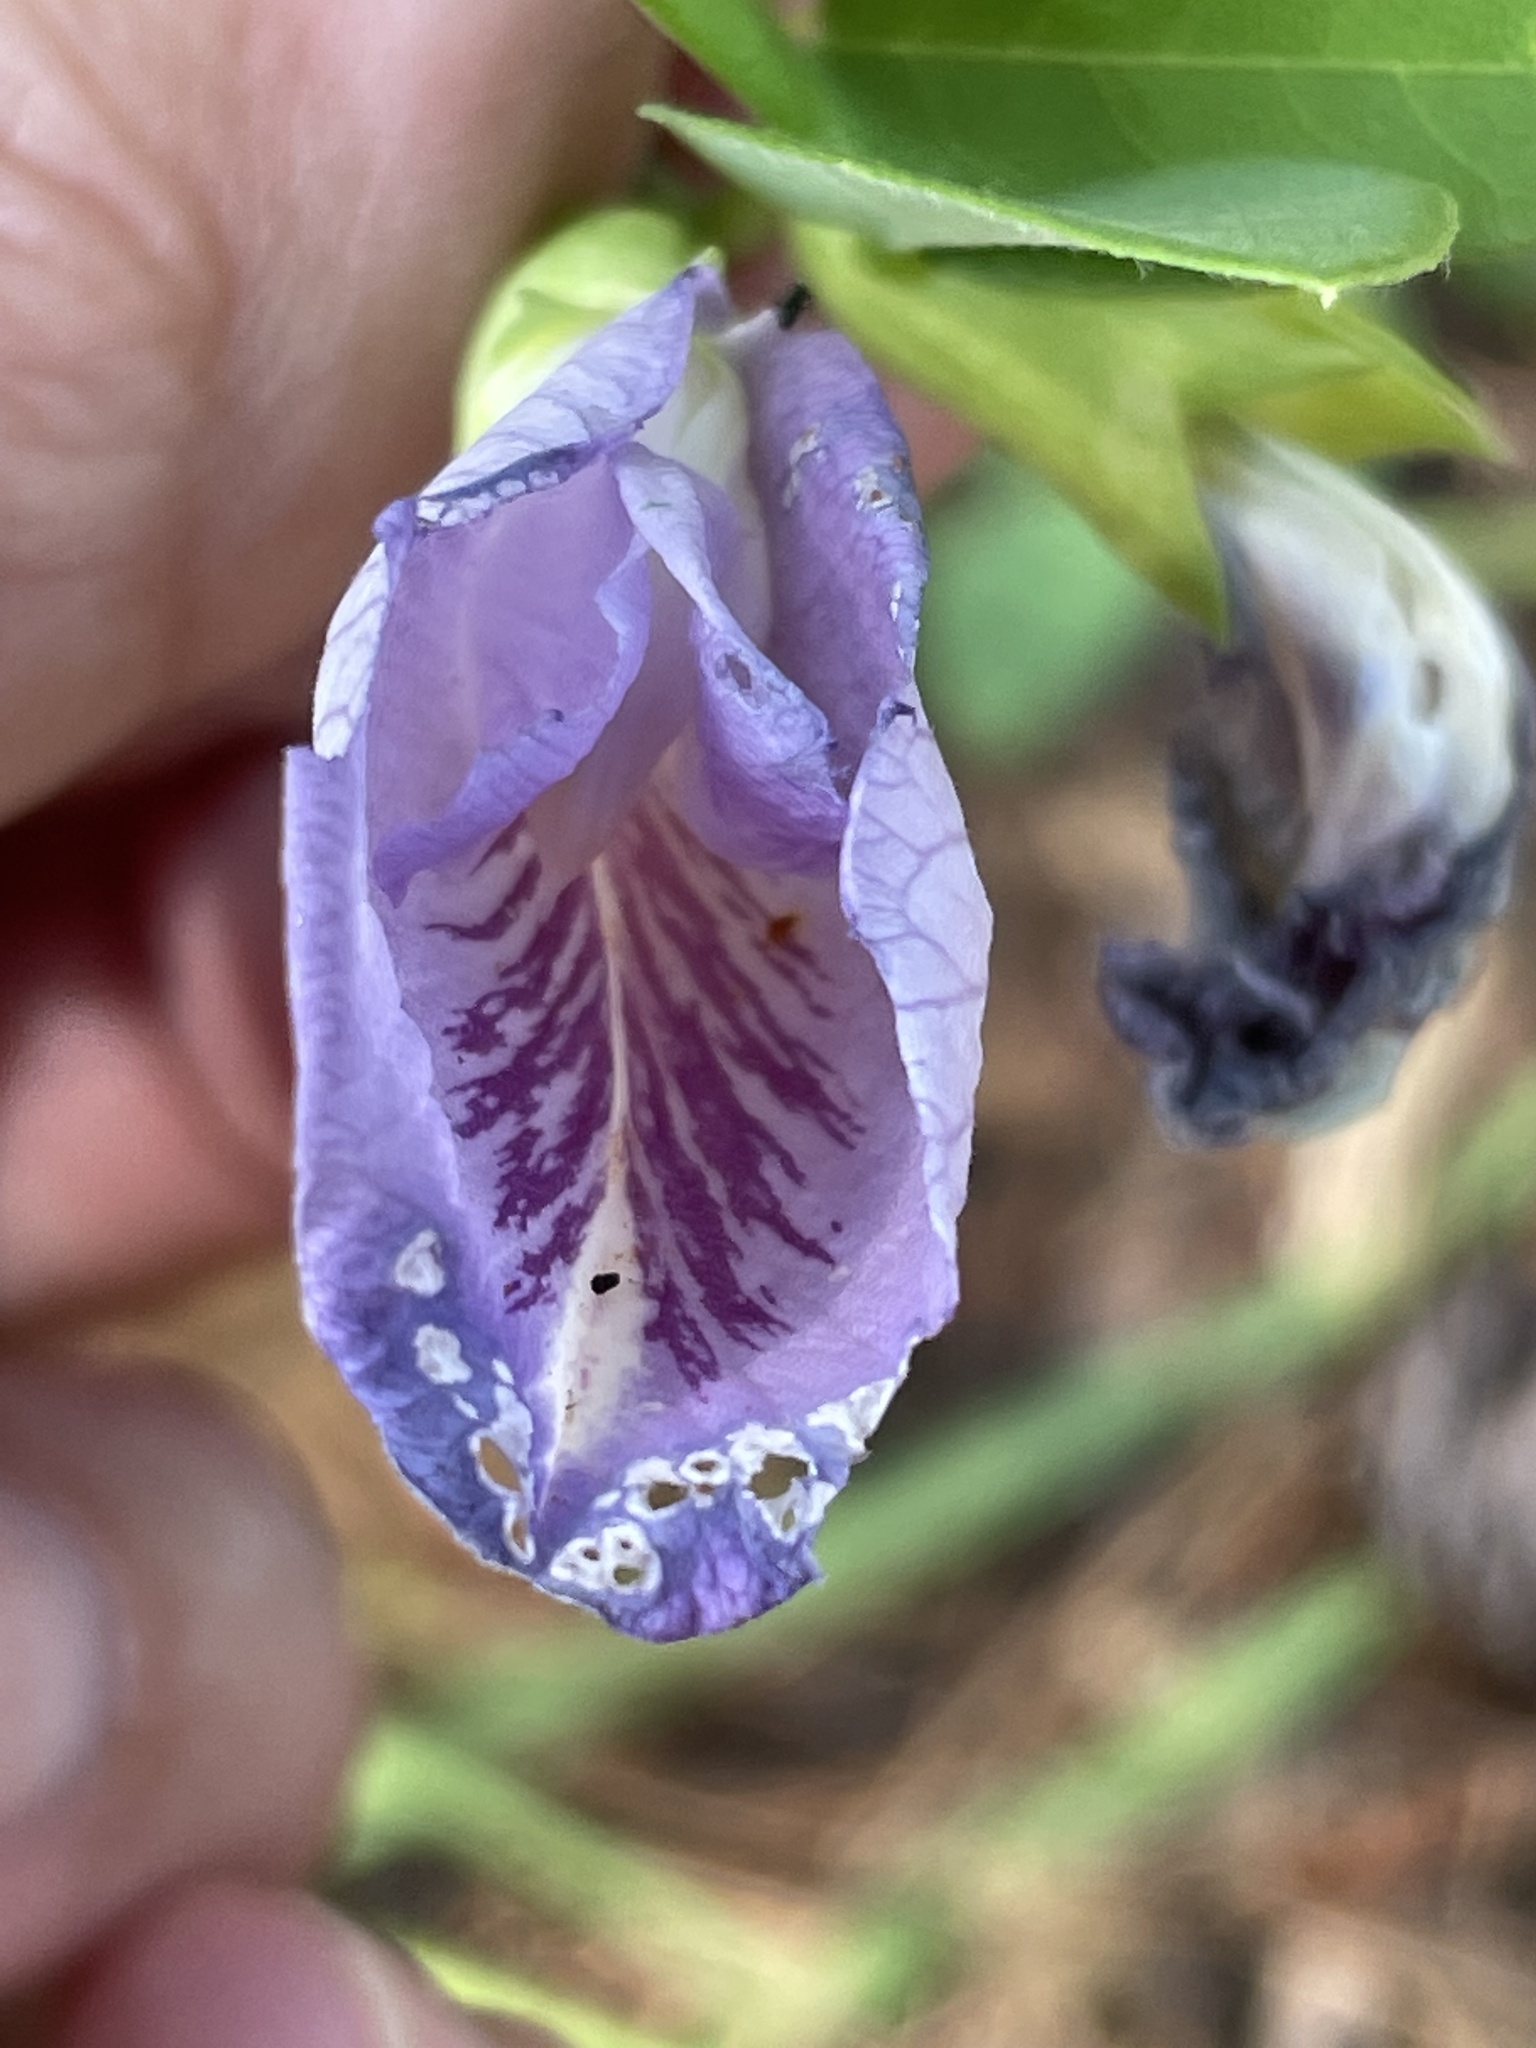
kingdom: Plantae
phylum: Tracheophyta
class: Magnoliopsida
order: Fabales
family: Fabaceae
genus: Clitoria
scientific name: Clitoria mariana
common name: Butterfly-pea
